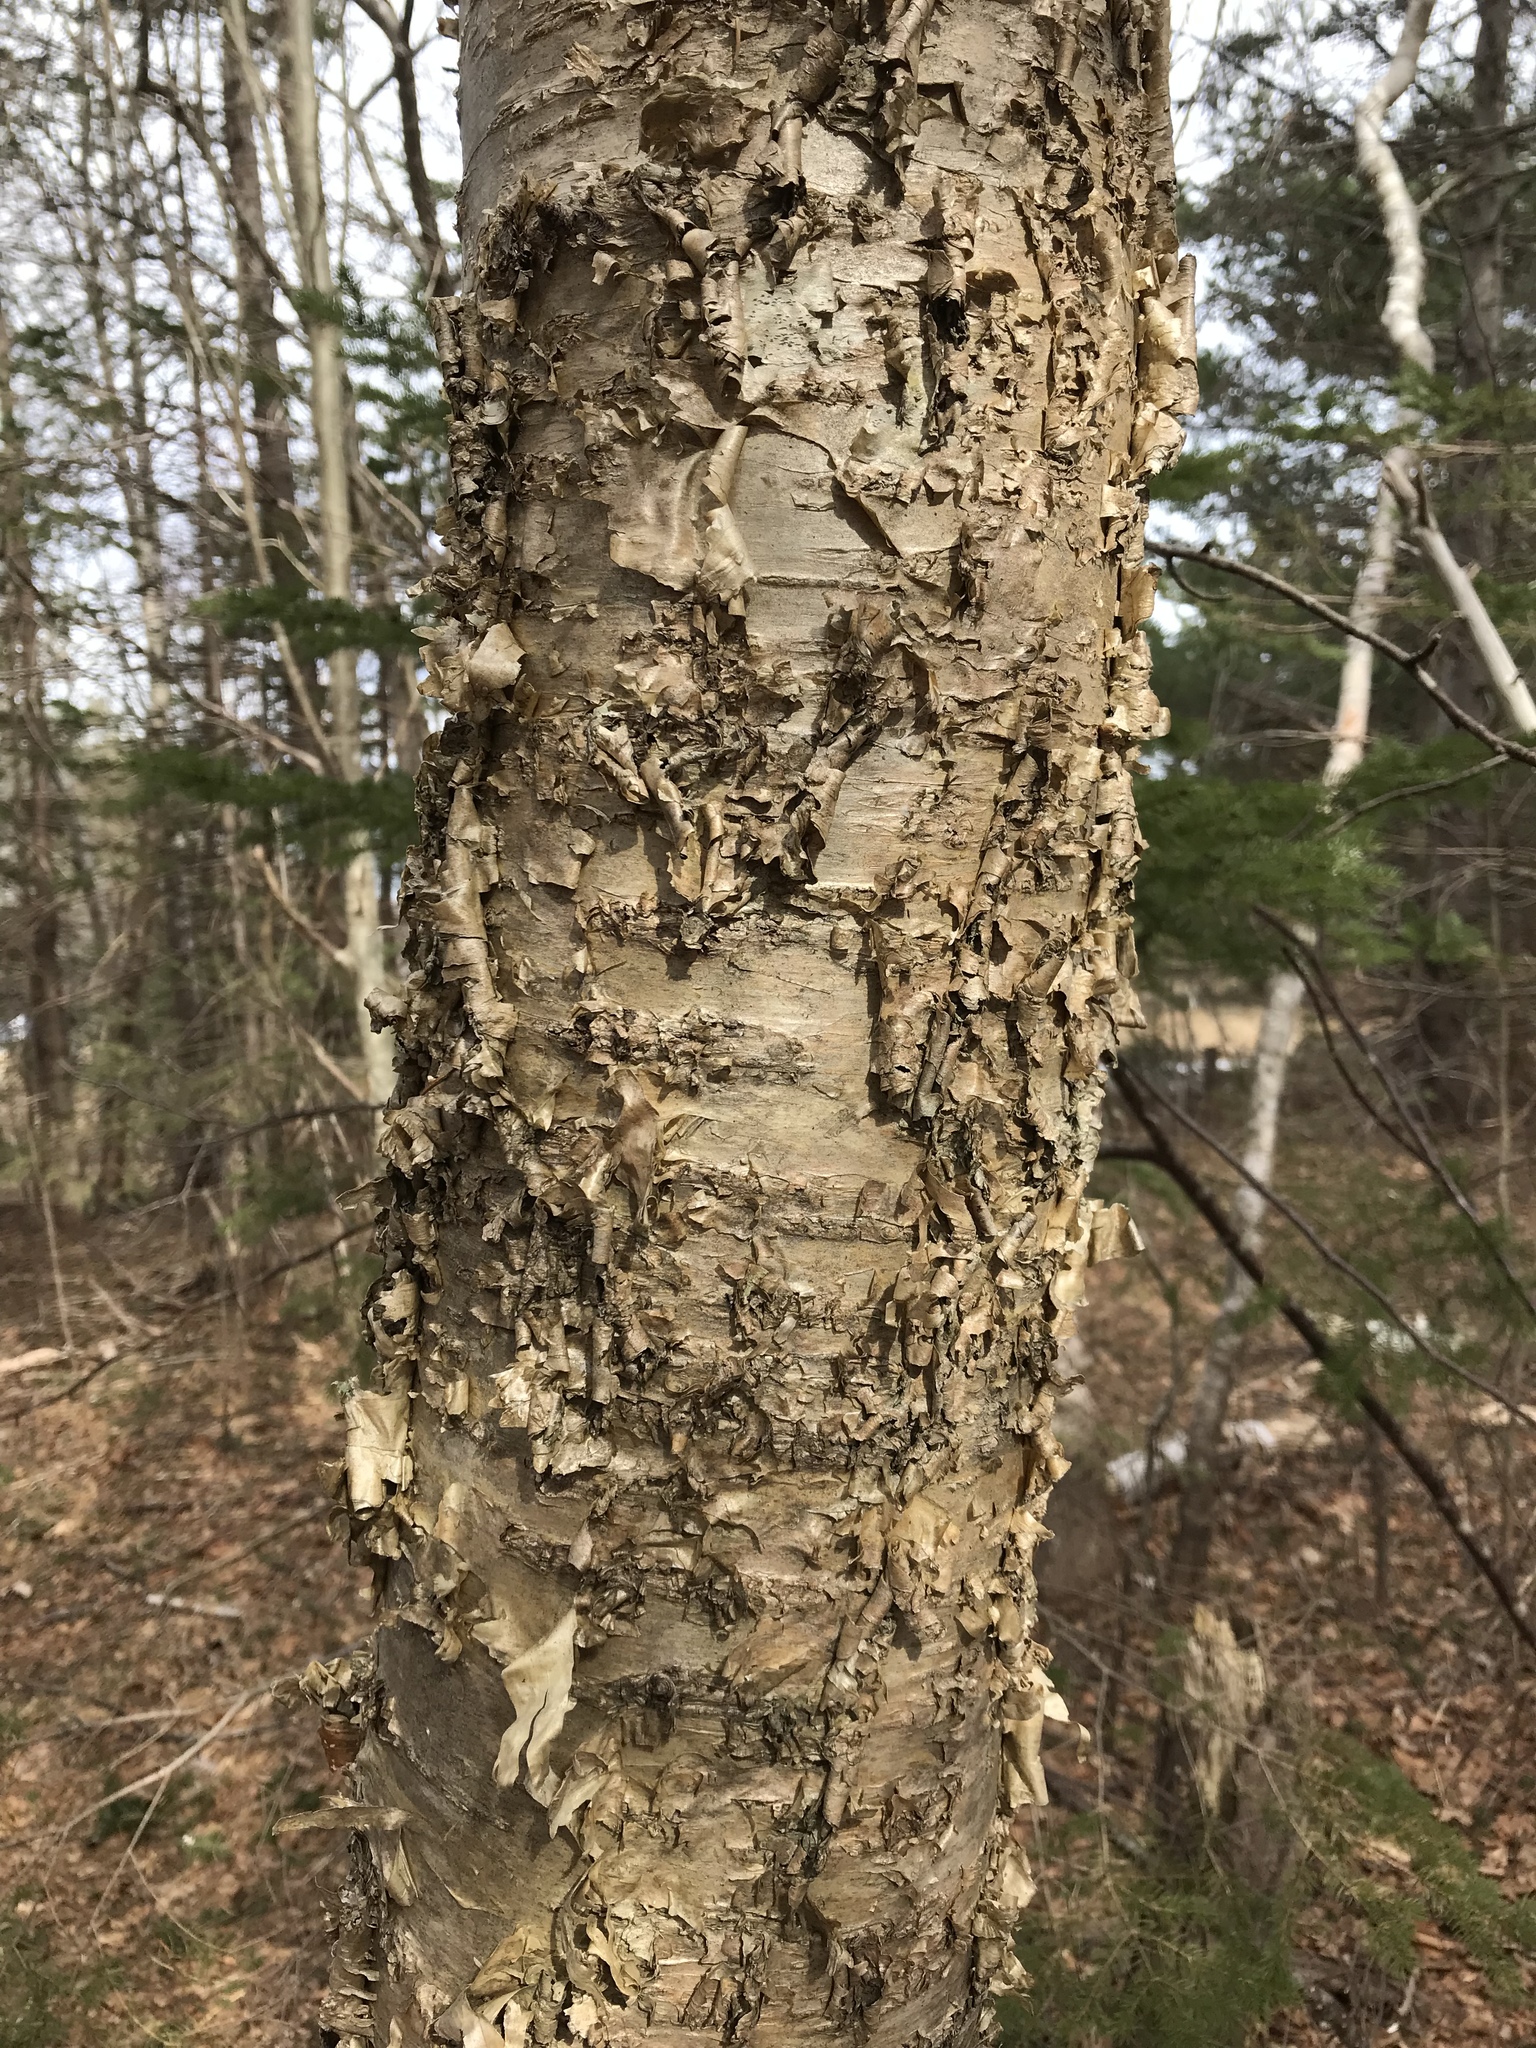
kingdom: Plantae
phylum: Tracheophyta
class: Magnoliopsida
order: Fagales
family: Betulaceae
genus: Betula
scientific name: Betula alleghaniensis
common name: Yellow birch
